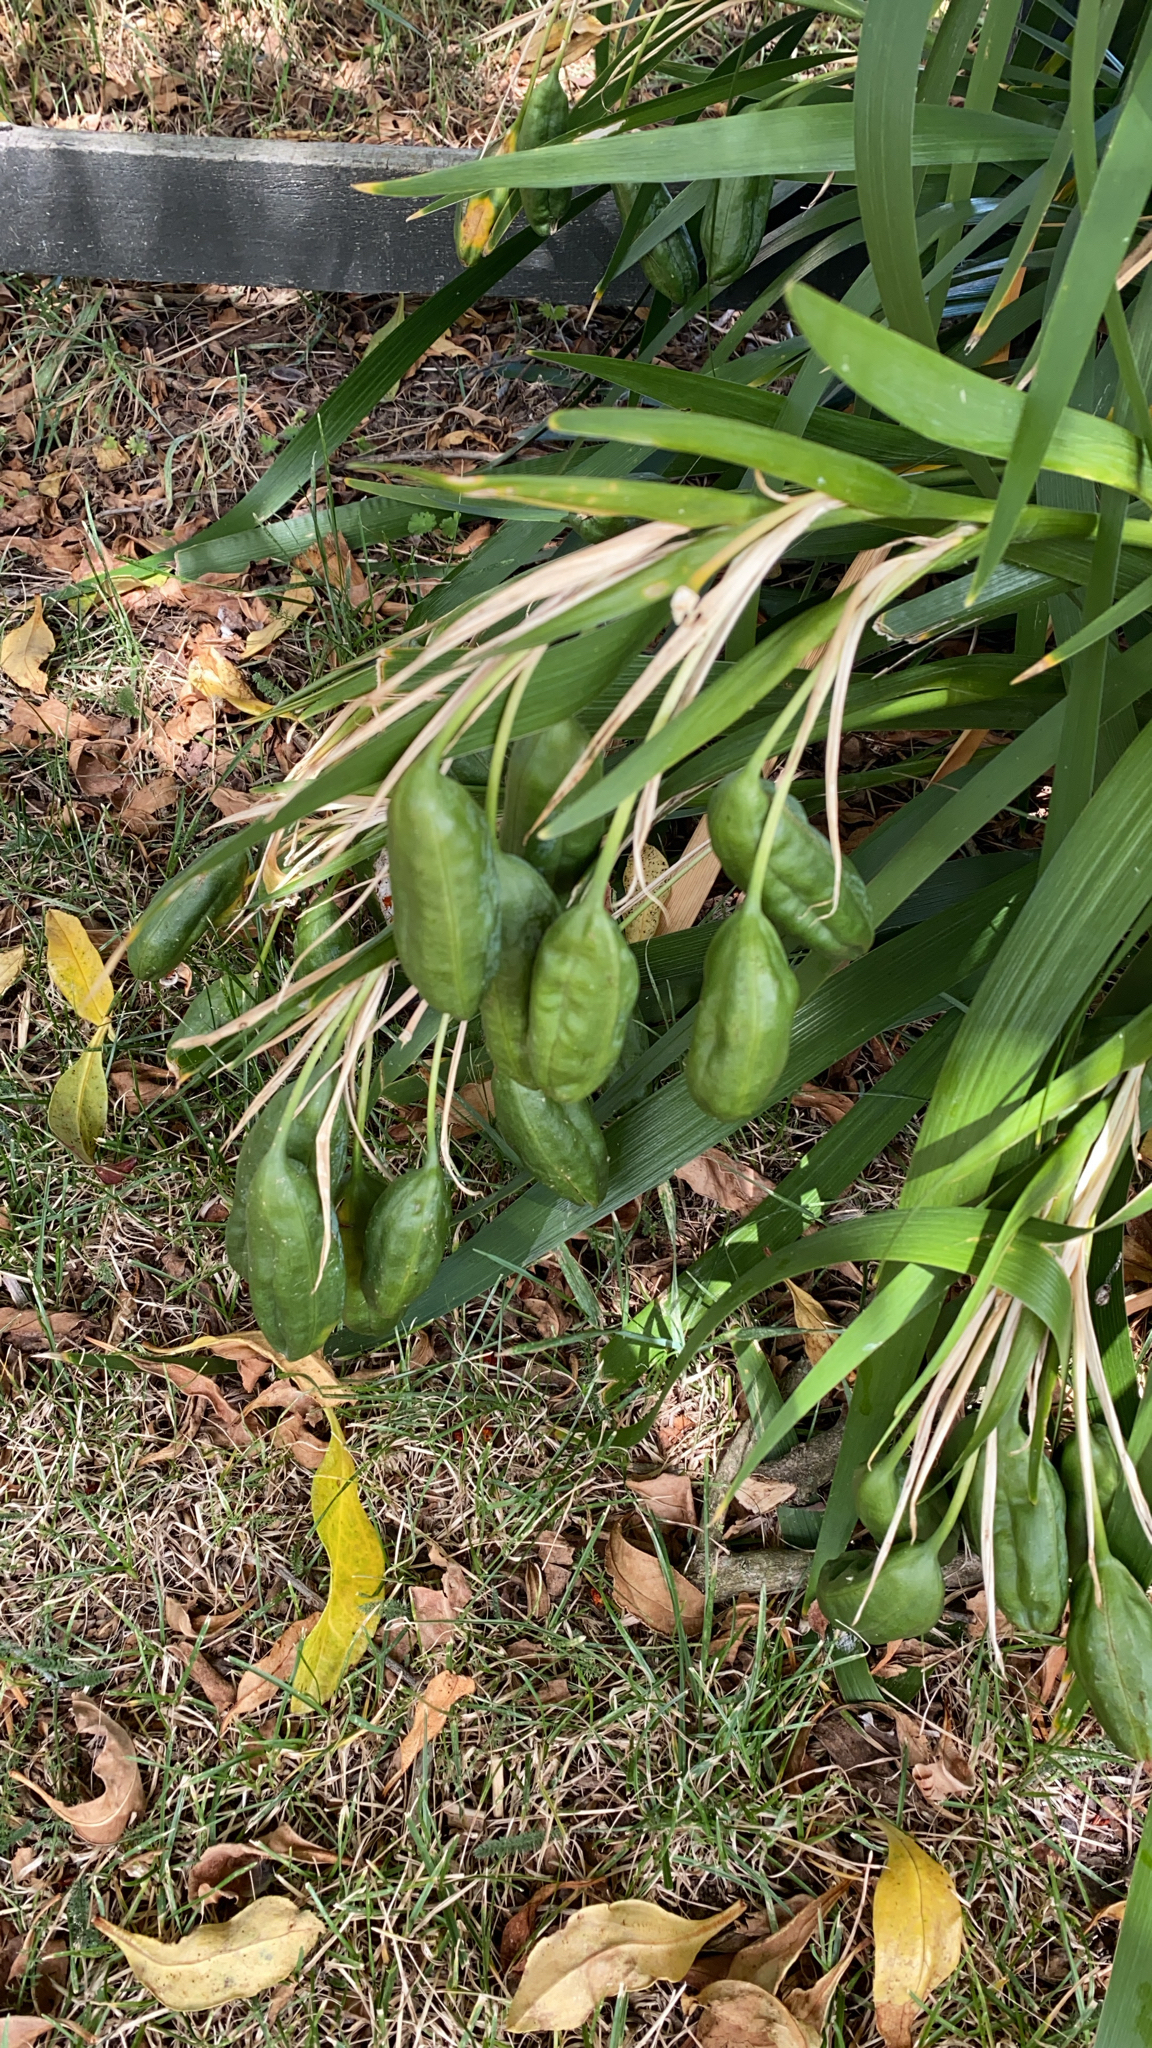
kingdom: Plantae
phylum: Tracheophyta
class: Liliopsida
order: Asparagales
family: Iridaceae
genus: Iris
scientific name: Iris foetidissima
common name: Stinking iris
